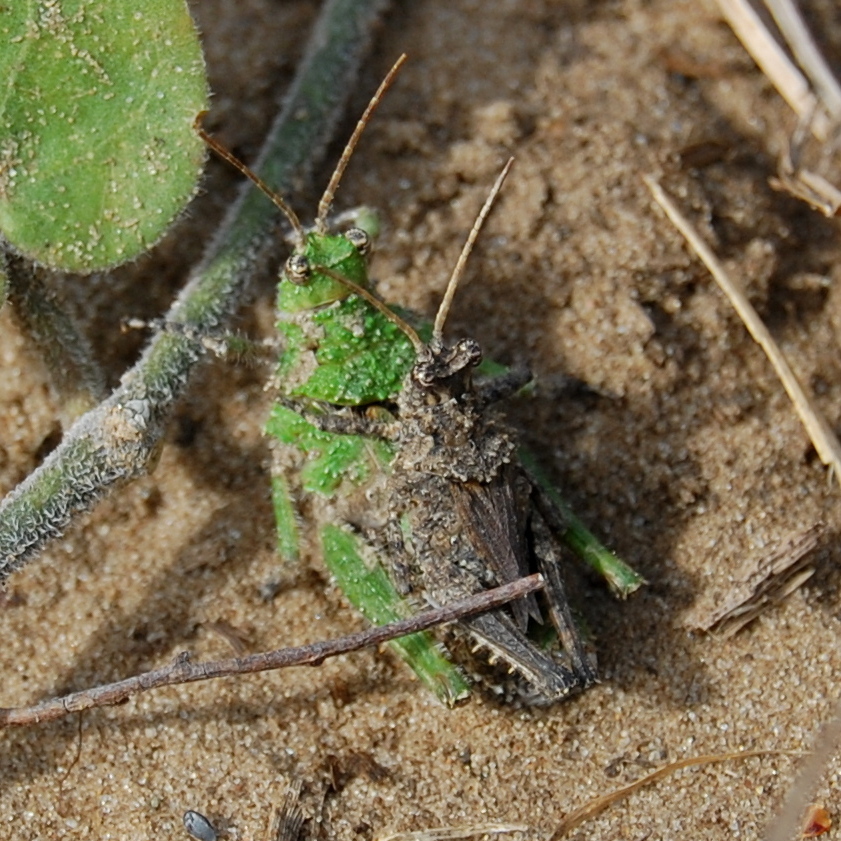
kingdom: Animalia
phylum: Arthropoda
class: Insecta
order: Orthoptera
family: Ommexechidae
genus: Ommexecha
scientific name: Ommexecha virens
